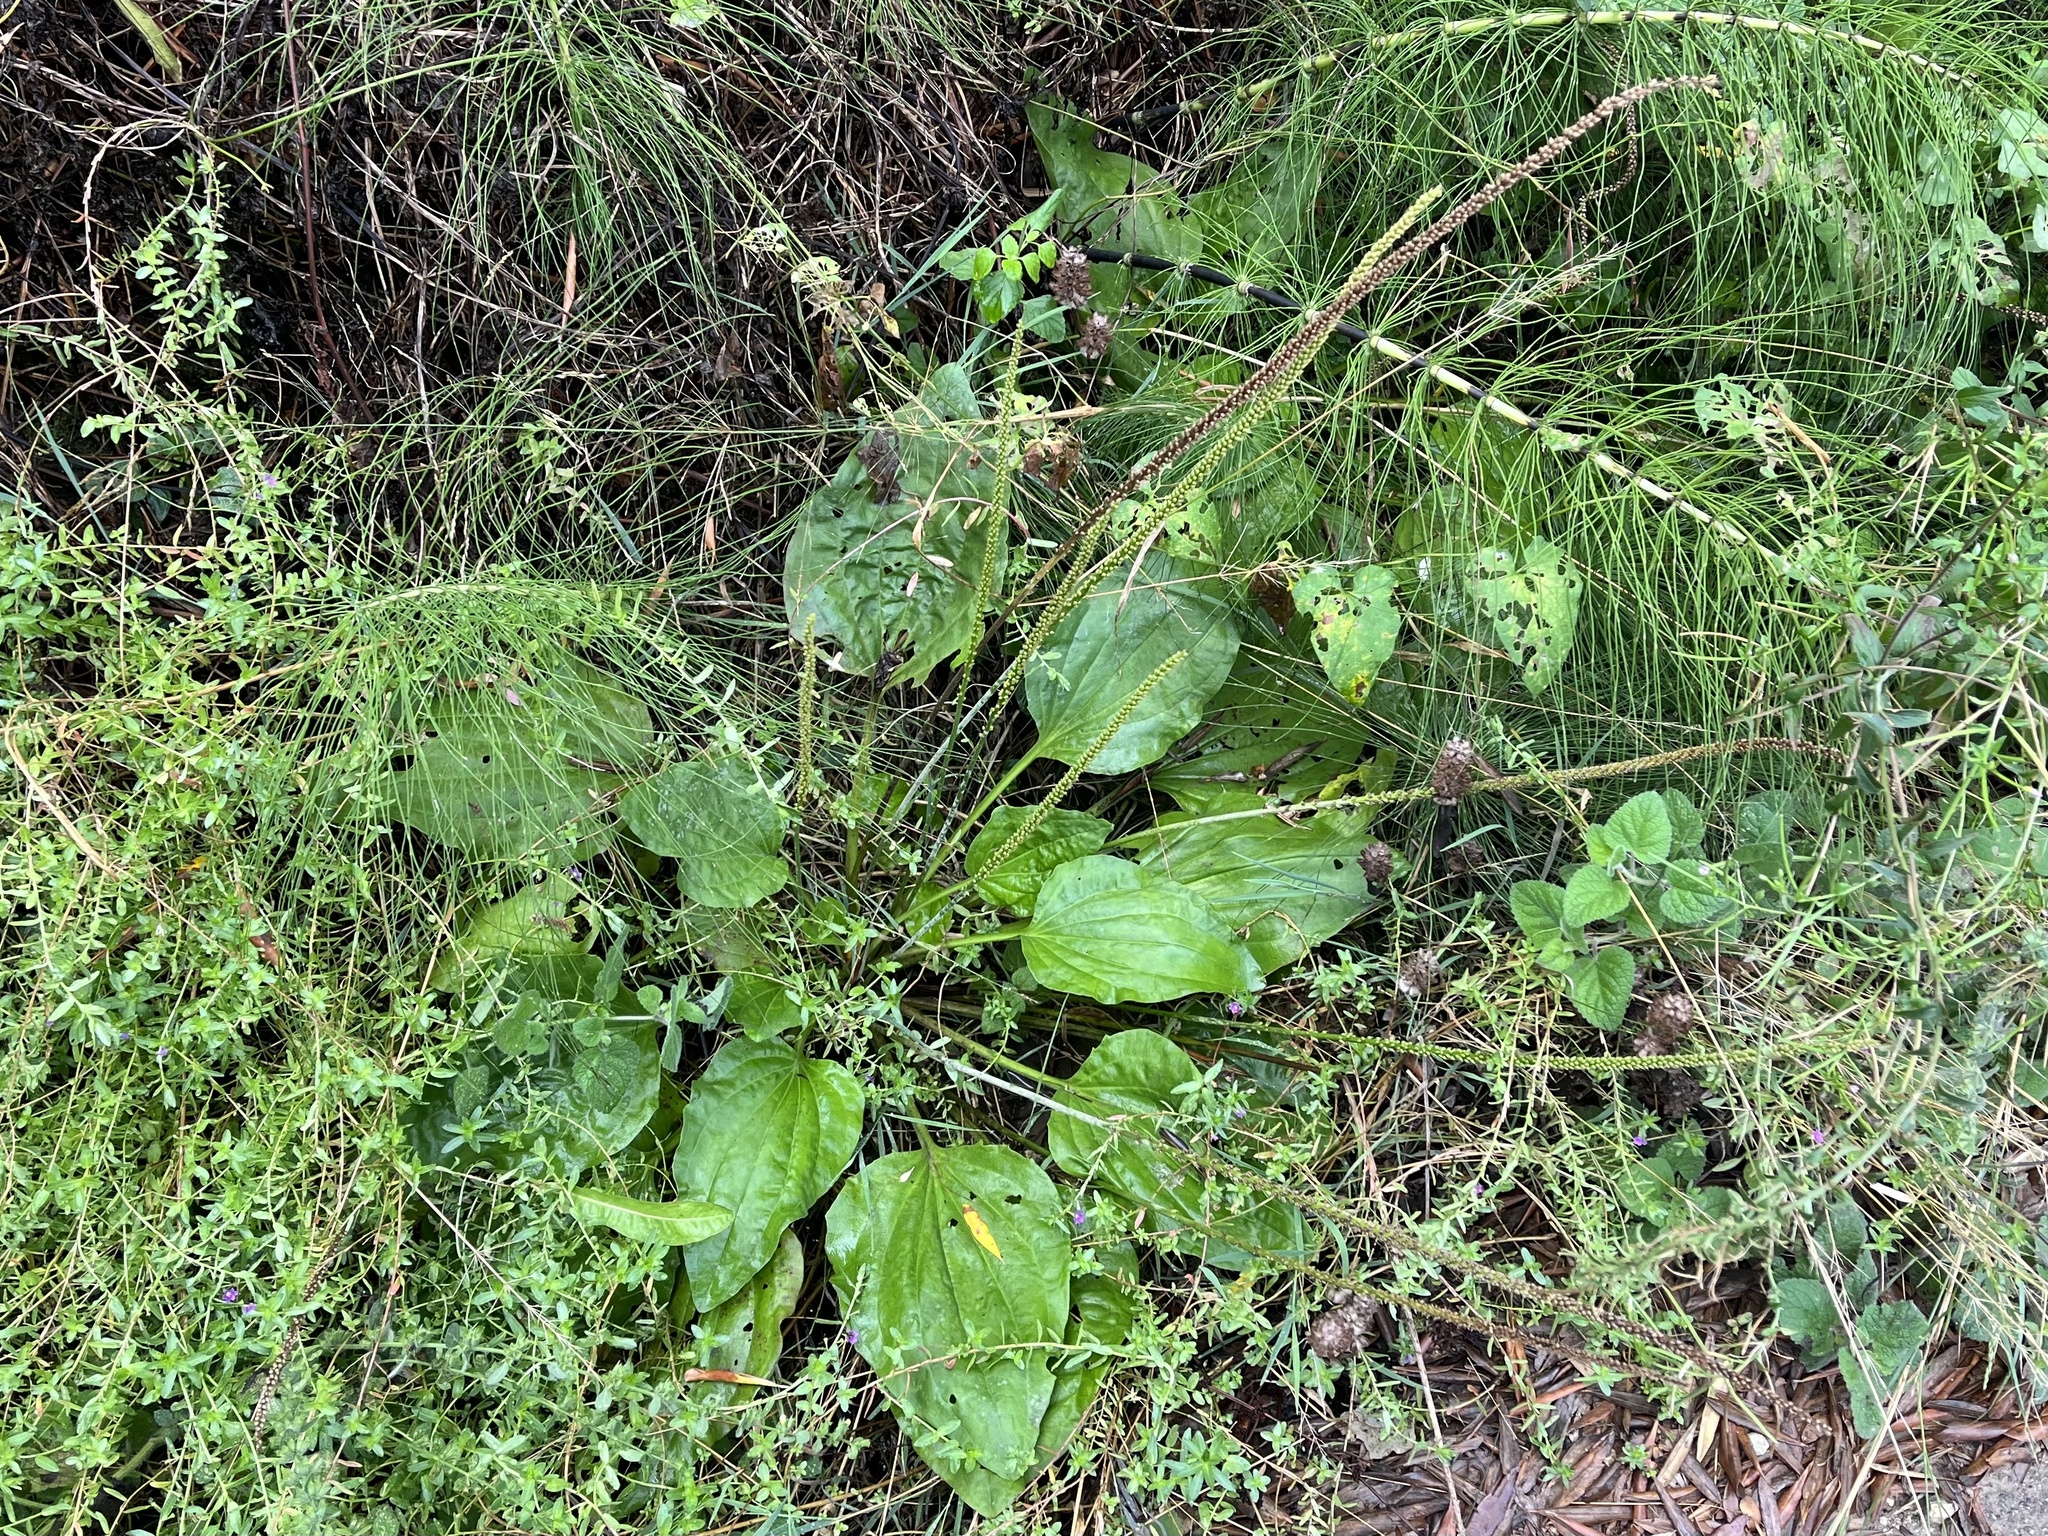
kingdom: Plantae
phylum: Tracheophyta
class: Magnoliopsida
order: Lamiales
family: Plantaginaceae
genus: Plantago
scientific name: Plantago major
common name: Common plantain
